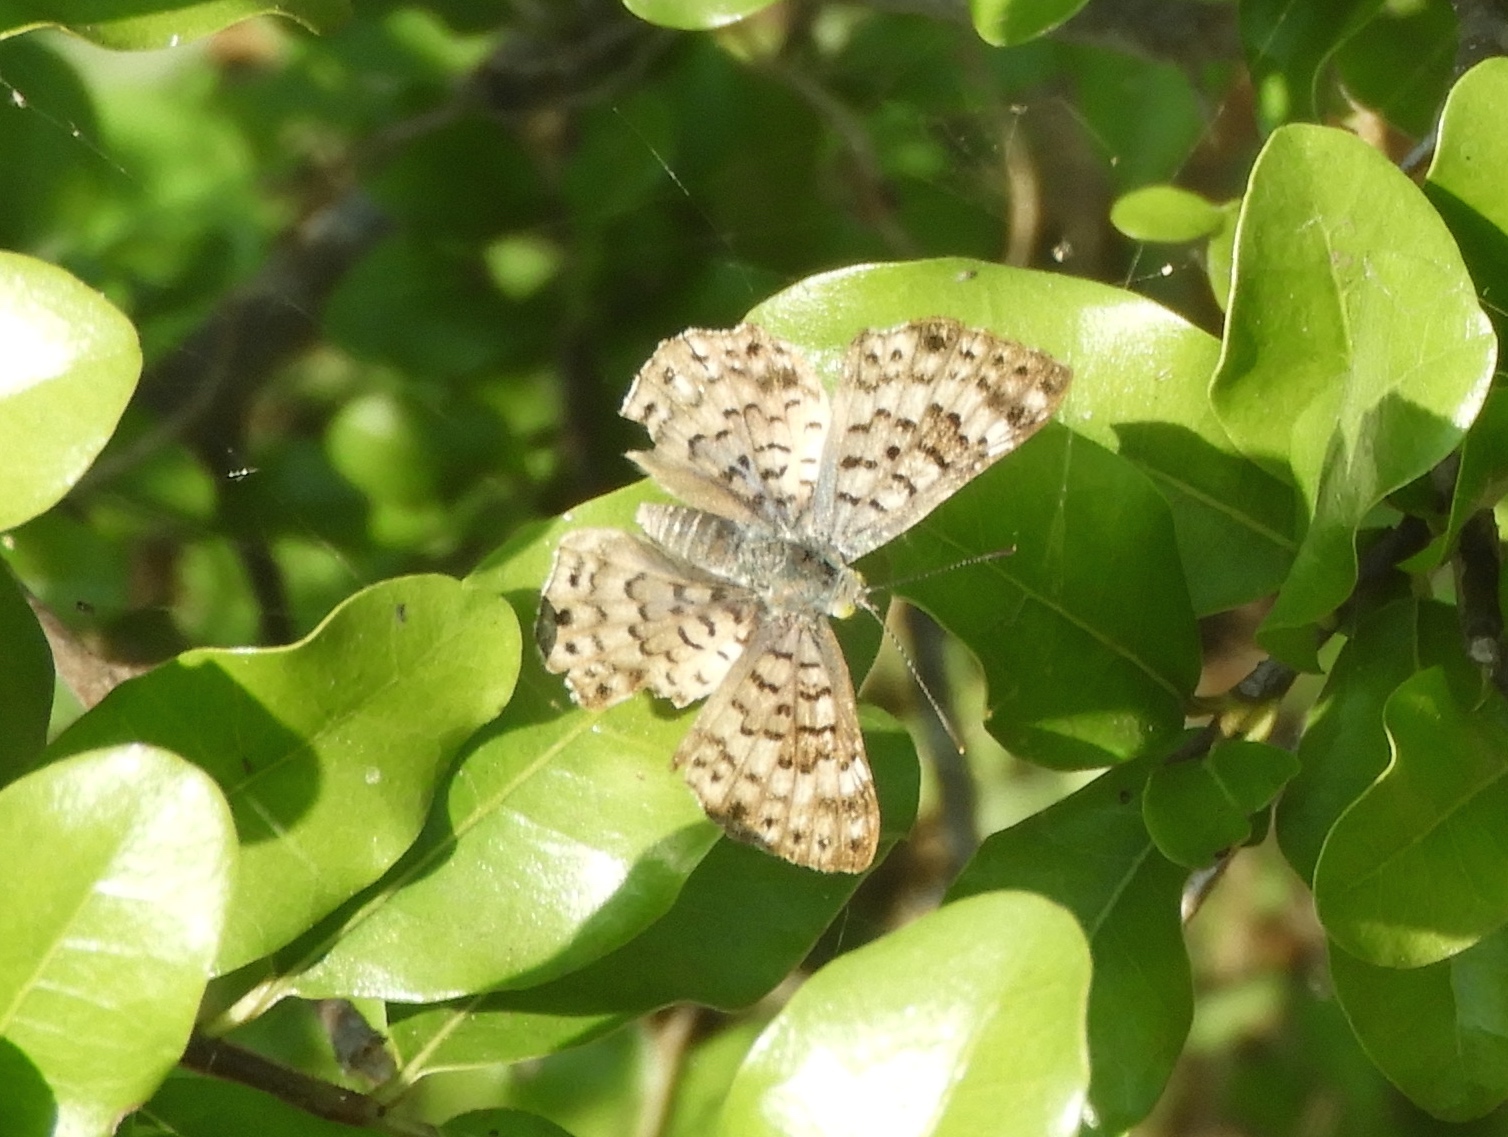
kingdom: Animalia
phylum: Arthropoda
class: Insecta
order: Lepidoptera
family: Riodinidae
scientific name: Riodinidae
